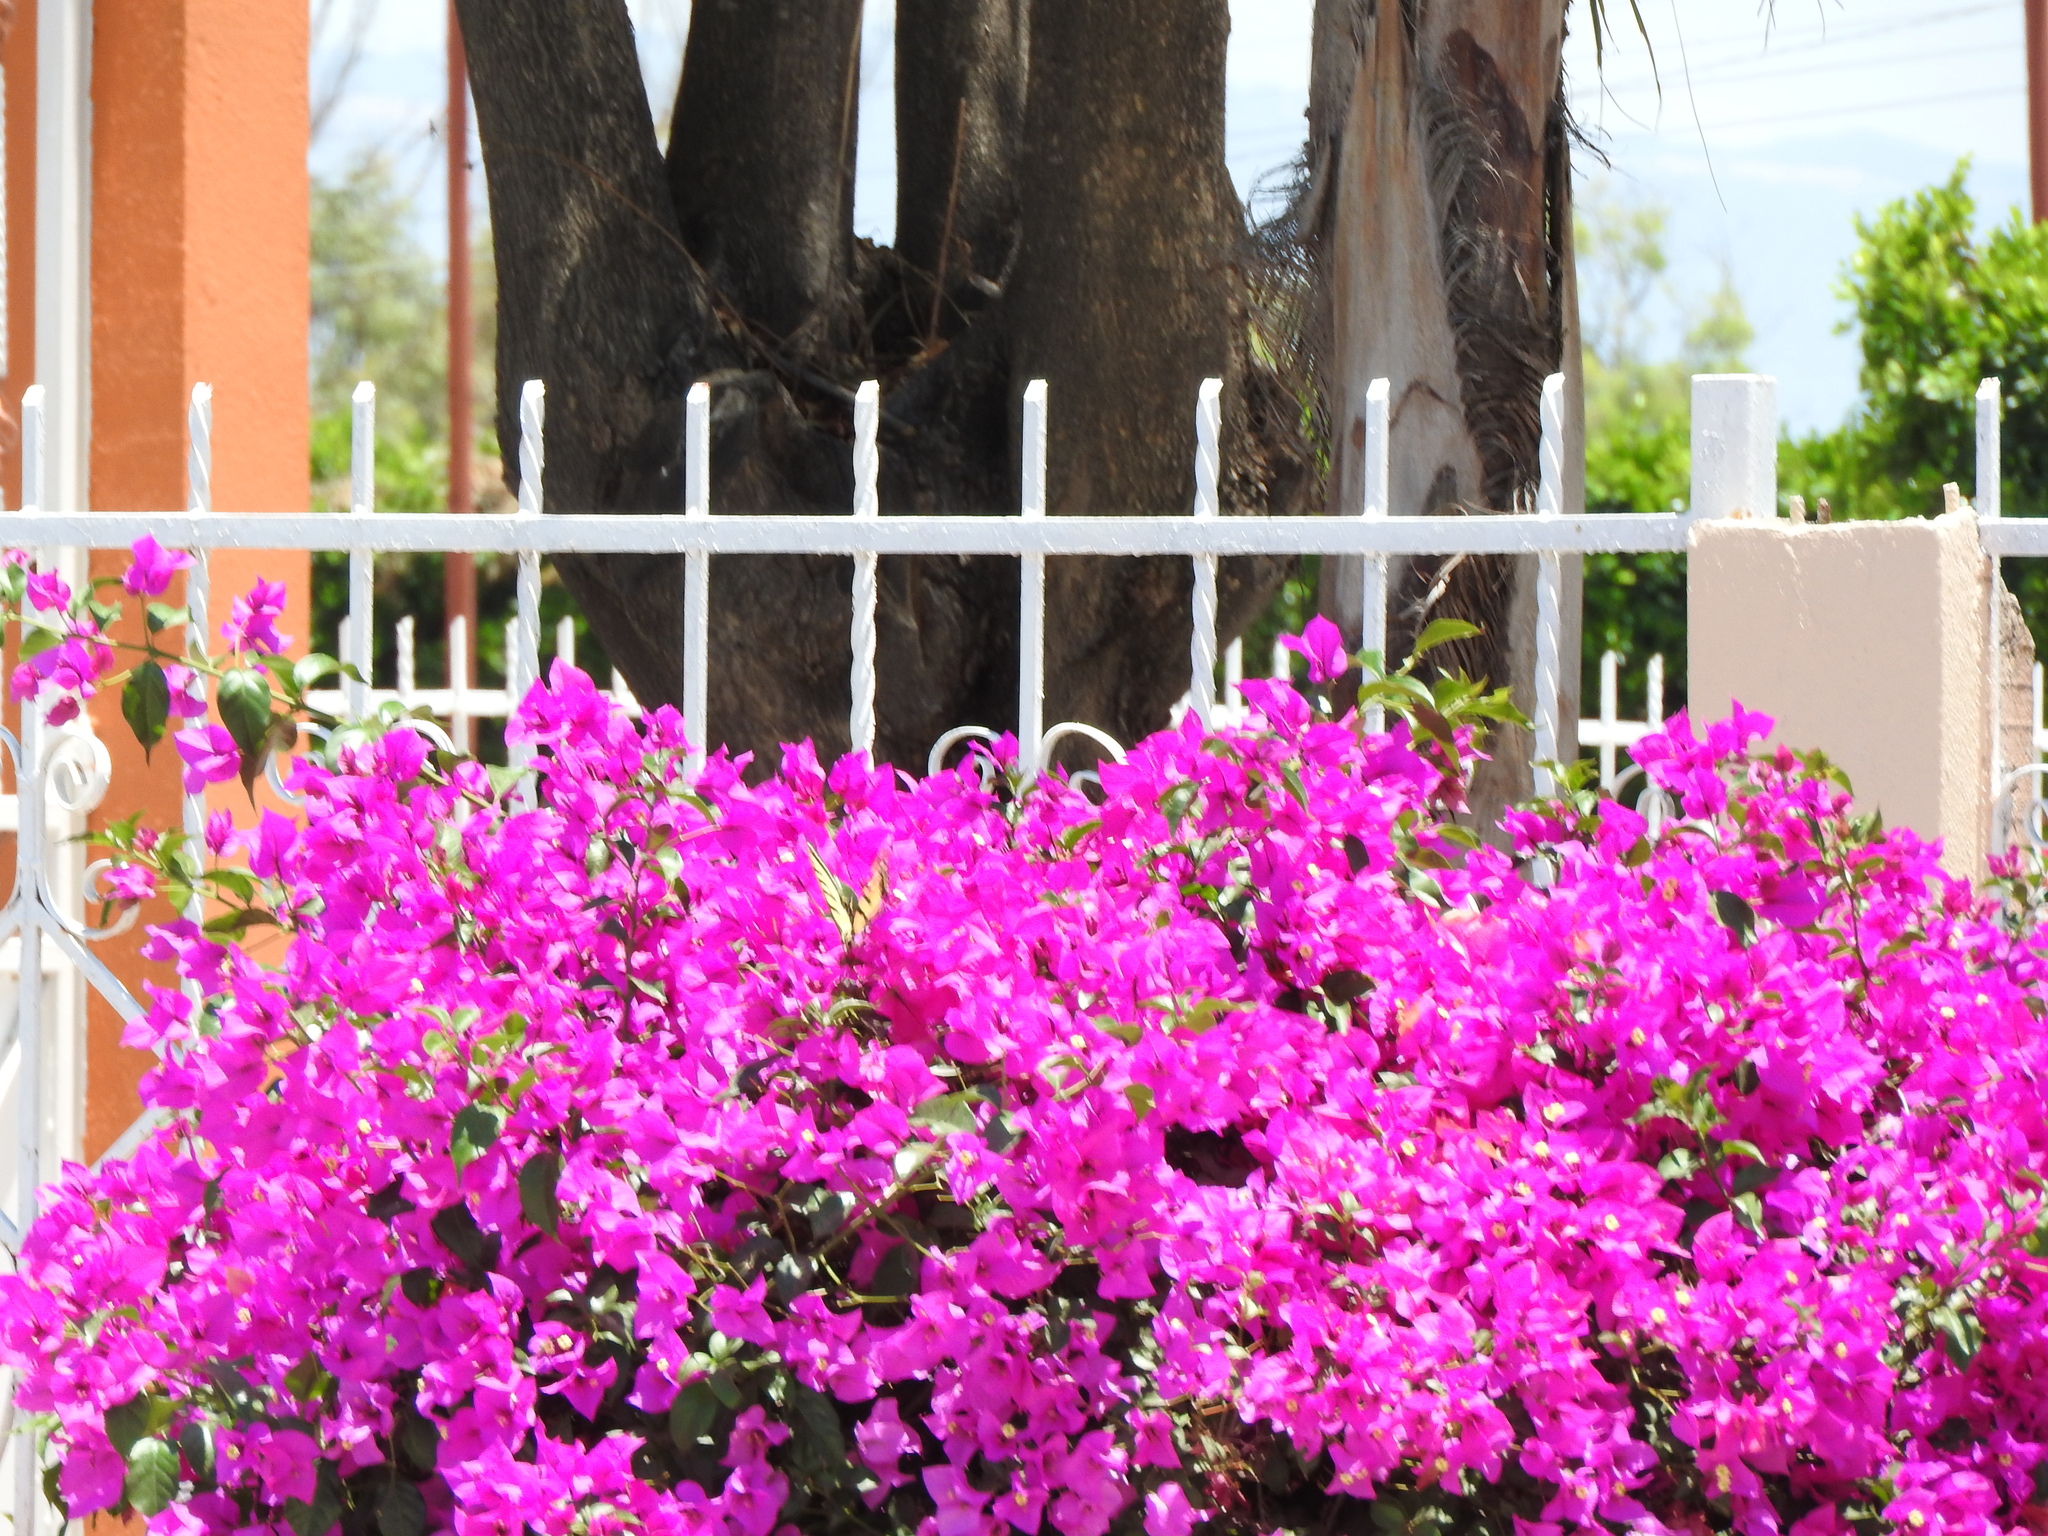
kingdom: Animalia
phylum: Arthropoda
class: Insecta
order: Lepidoptera
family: Papilionidae
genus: Papilio
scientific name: Papilio multicaudata
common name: Two-tailed tiger swallowtail
